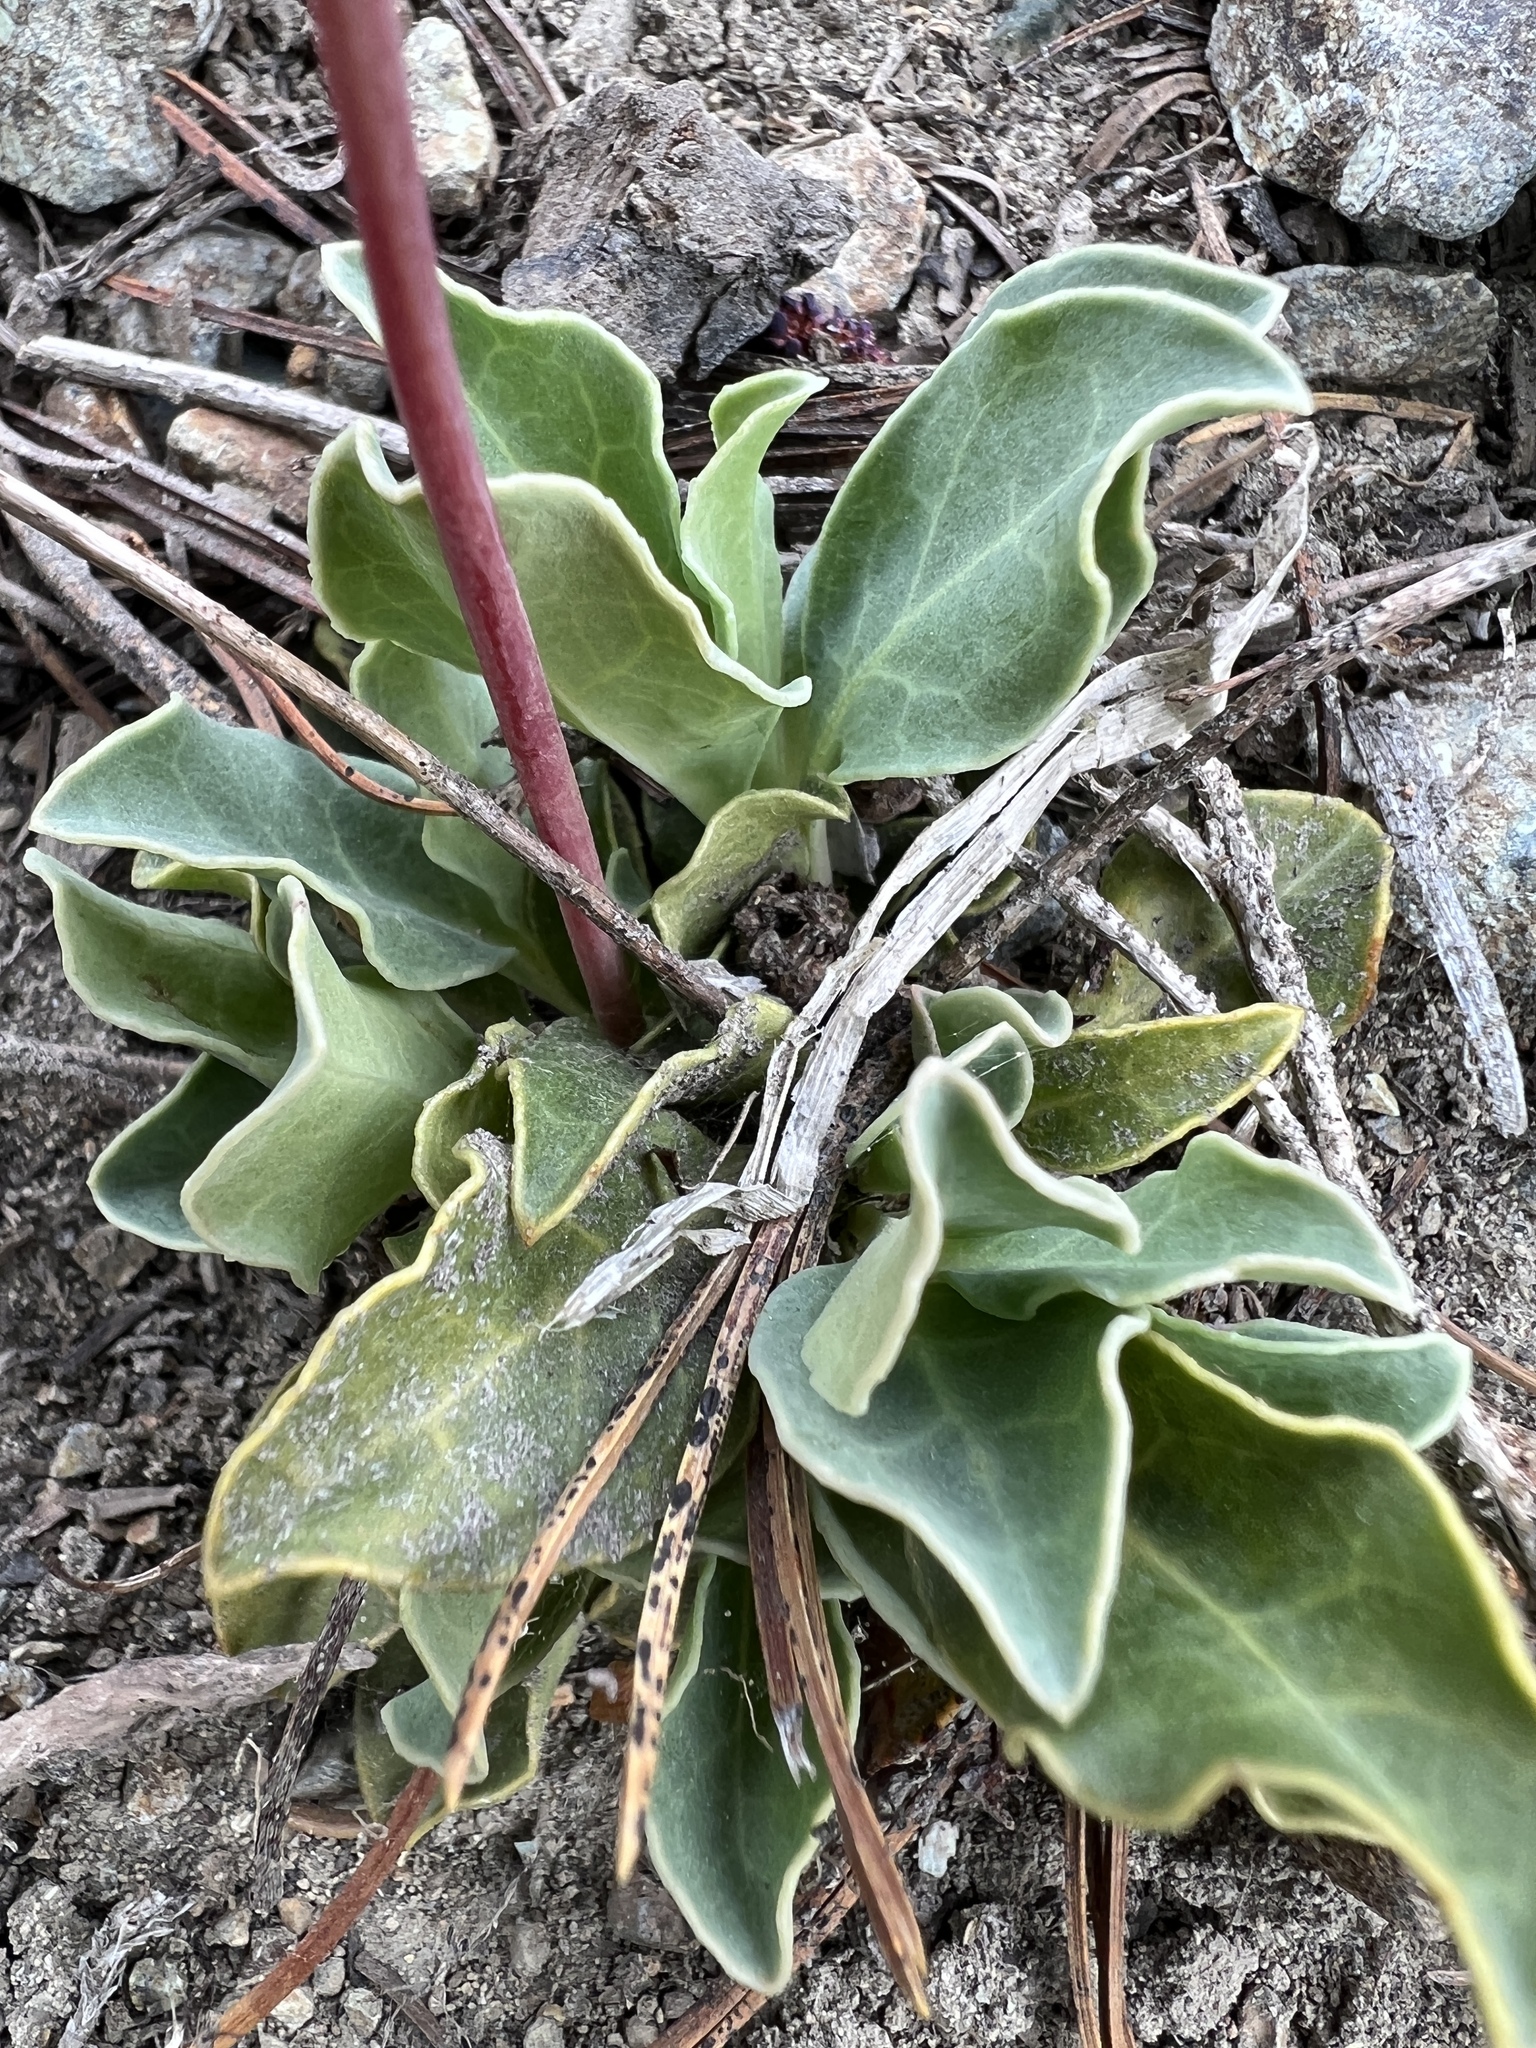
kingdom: Plantae
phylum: Tracheophyta
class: Magnoliopsida
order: Ericales
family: Ericaceae
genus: Pyrola
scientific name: Pyrola dentata
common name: Tooth-leaved wintergreen
